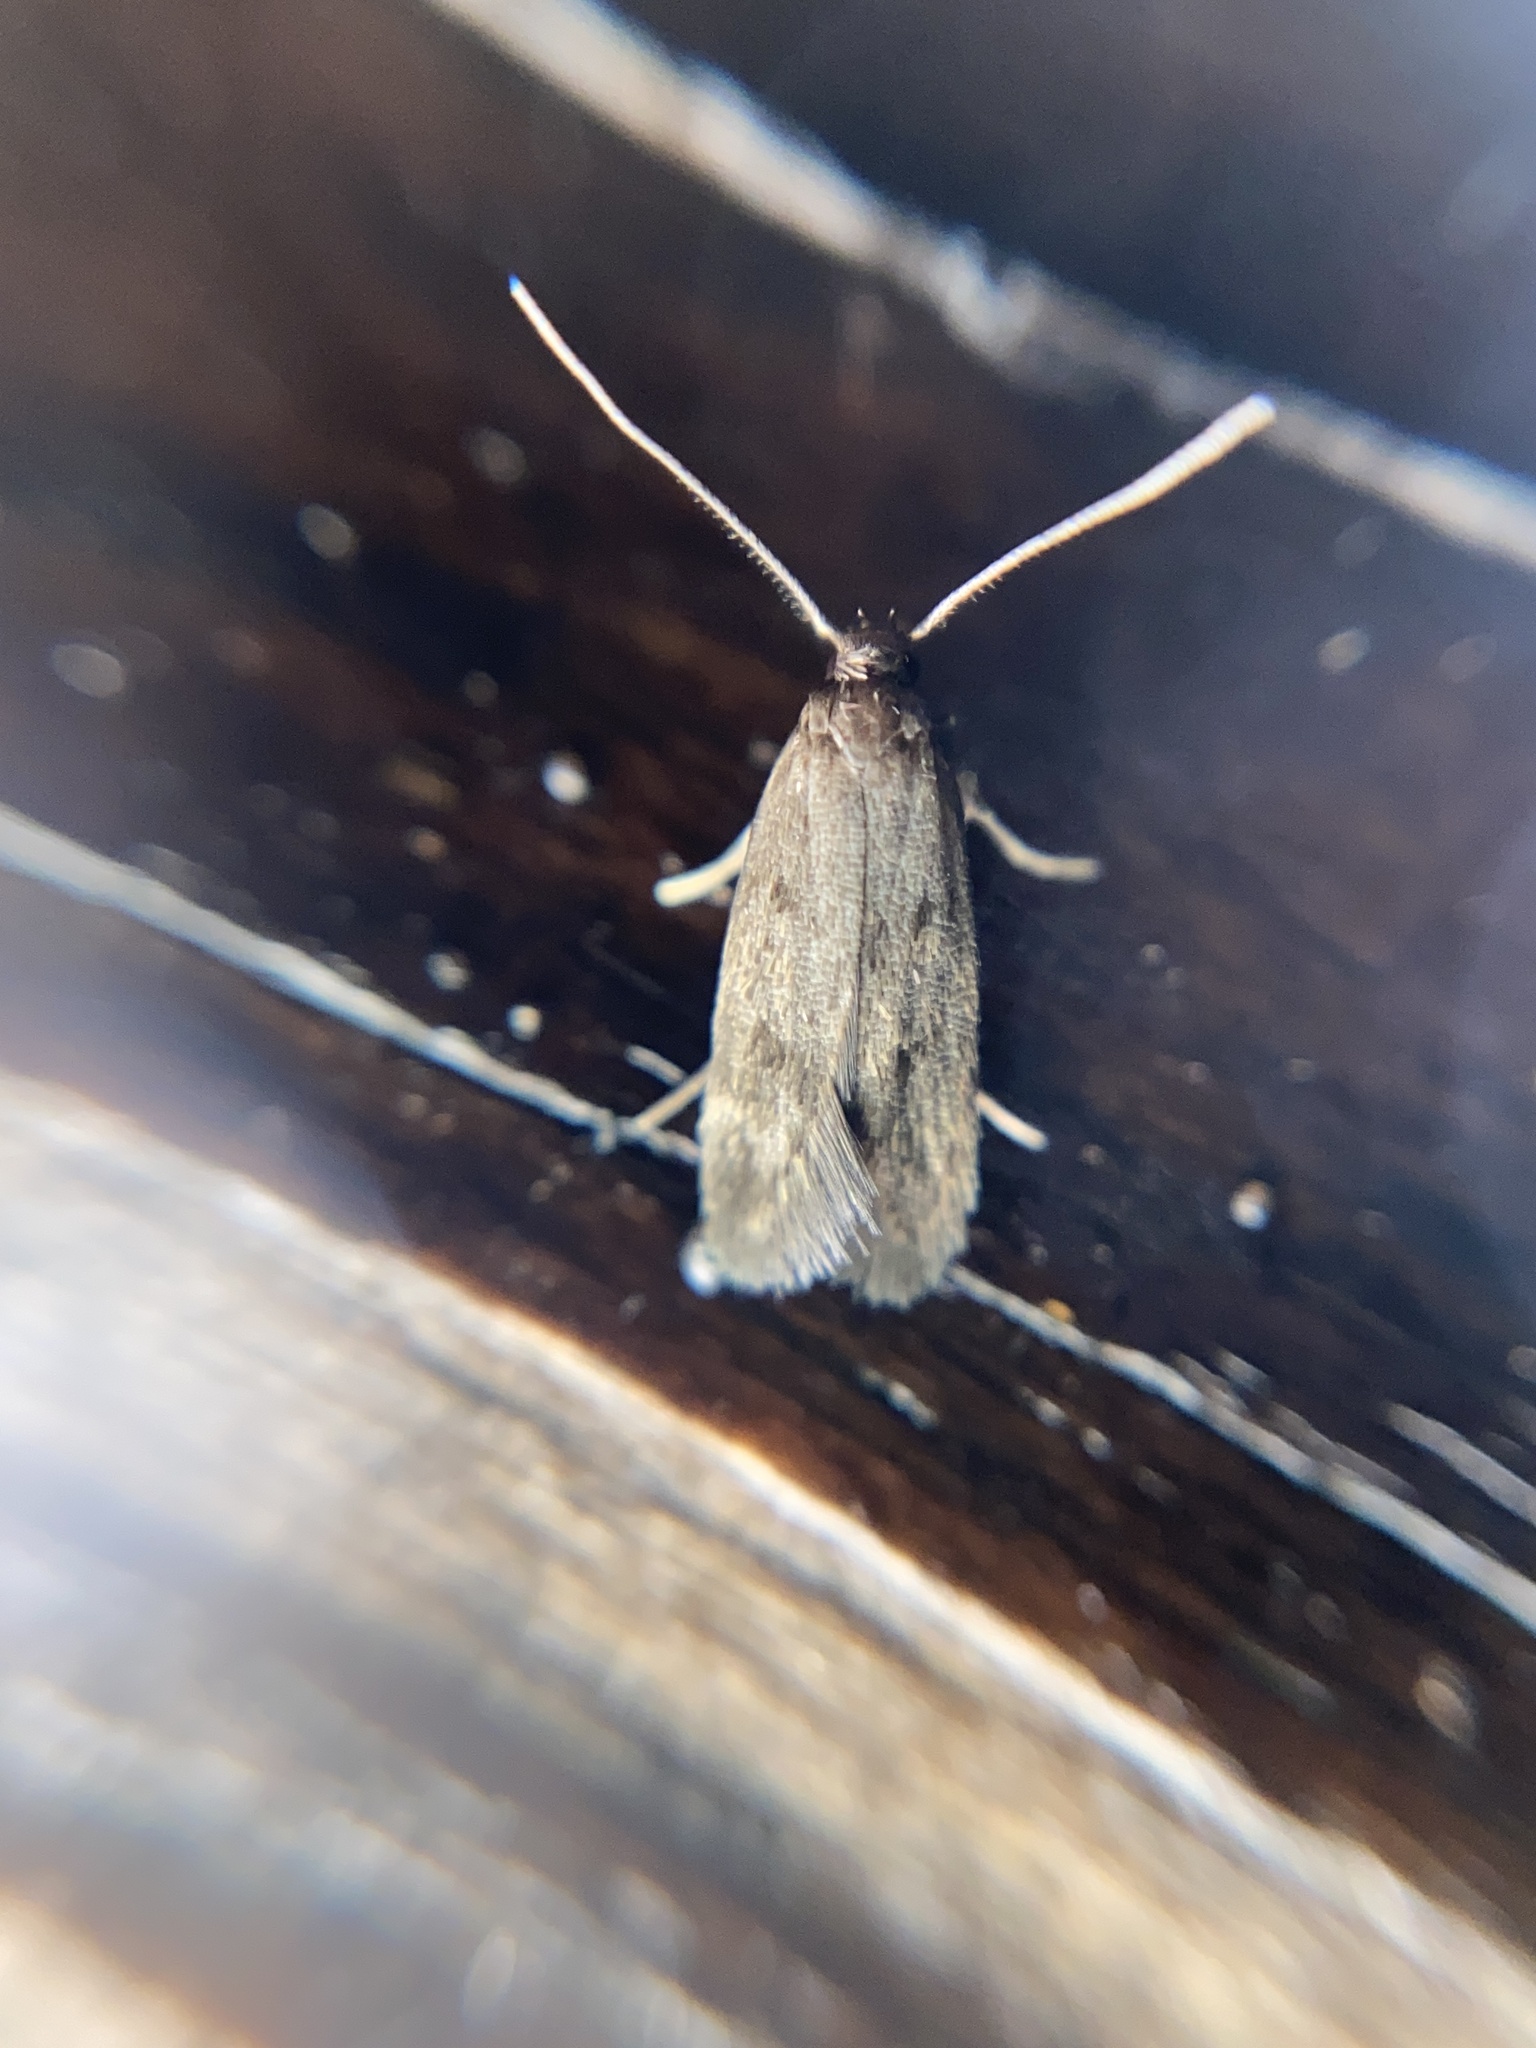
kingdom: Animalia
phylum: Arthropoda
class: Insecta
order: Lepidoptera
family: Oecophoridae
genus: Borkhausenia
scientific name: Borkhausenia fuscescens
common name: Small dingy tubic
